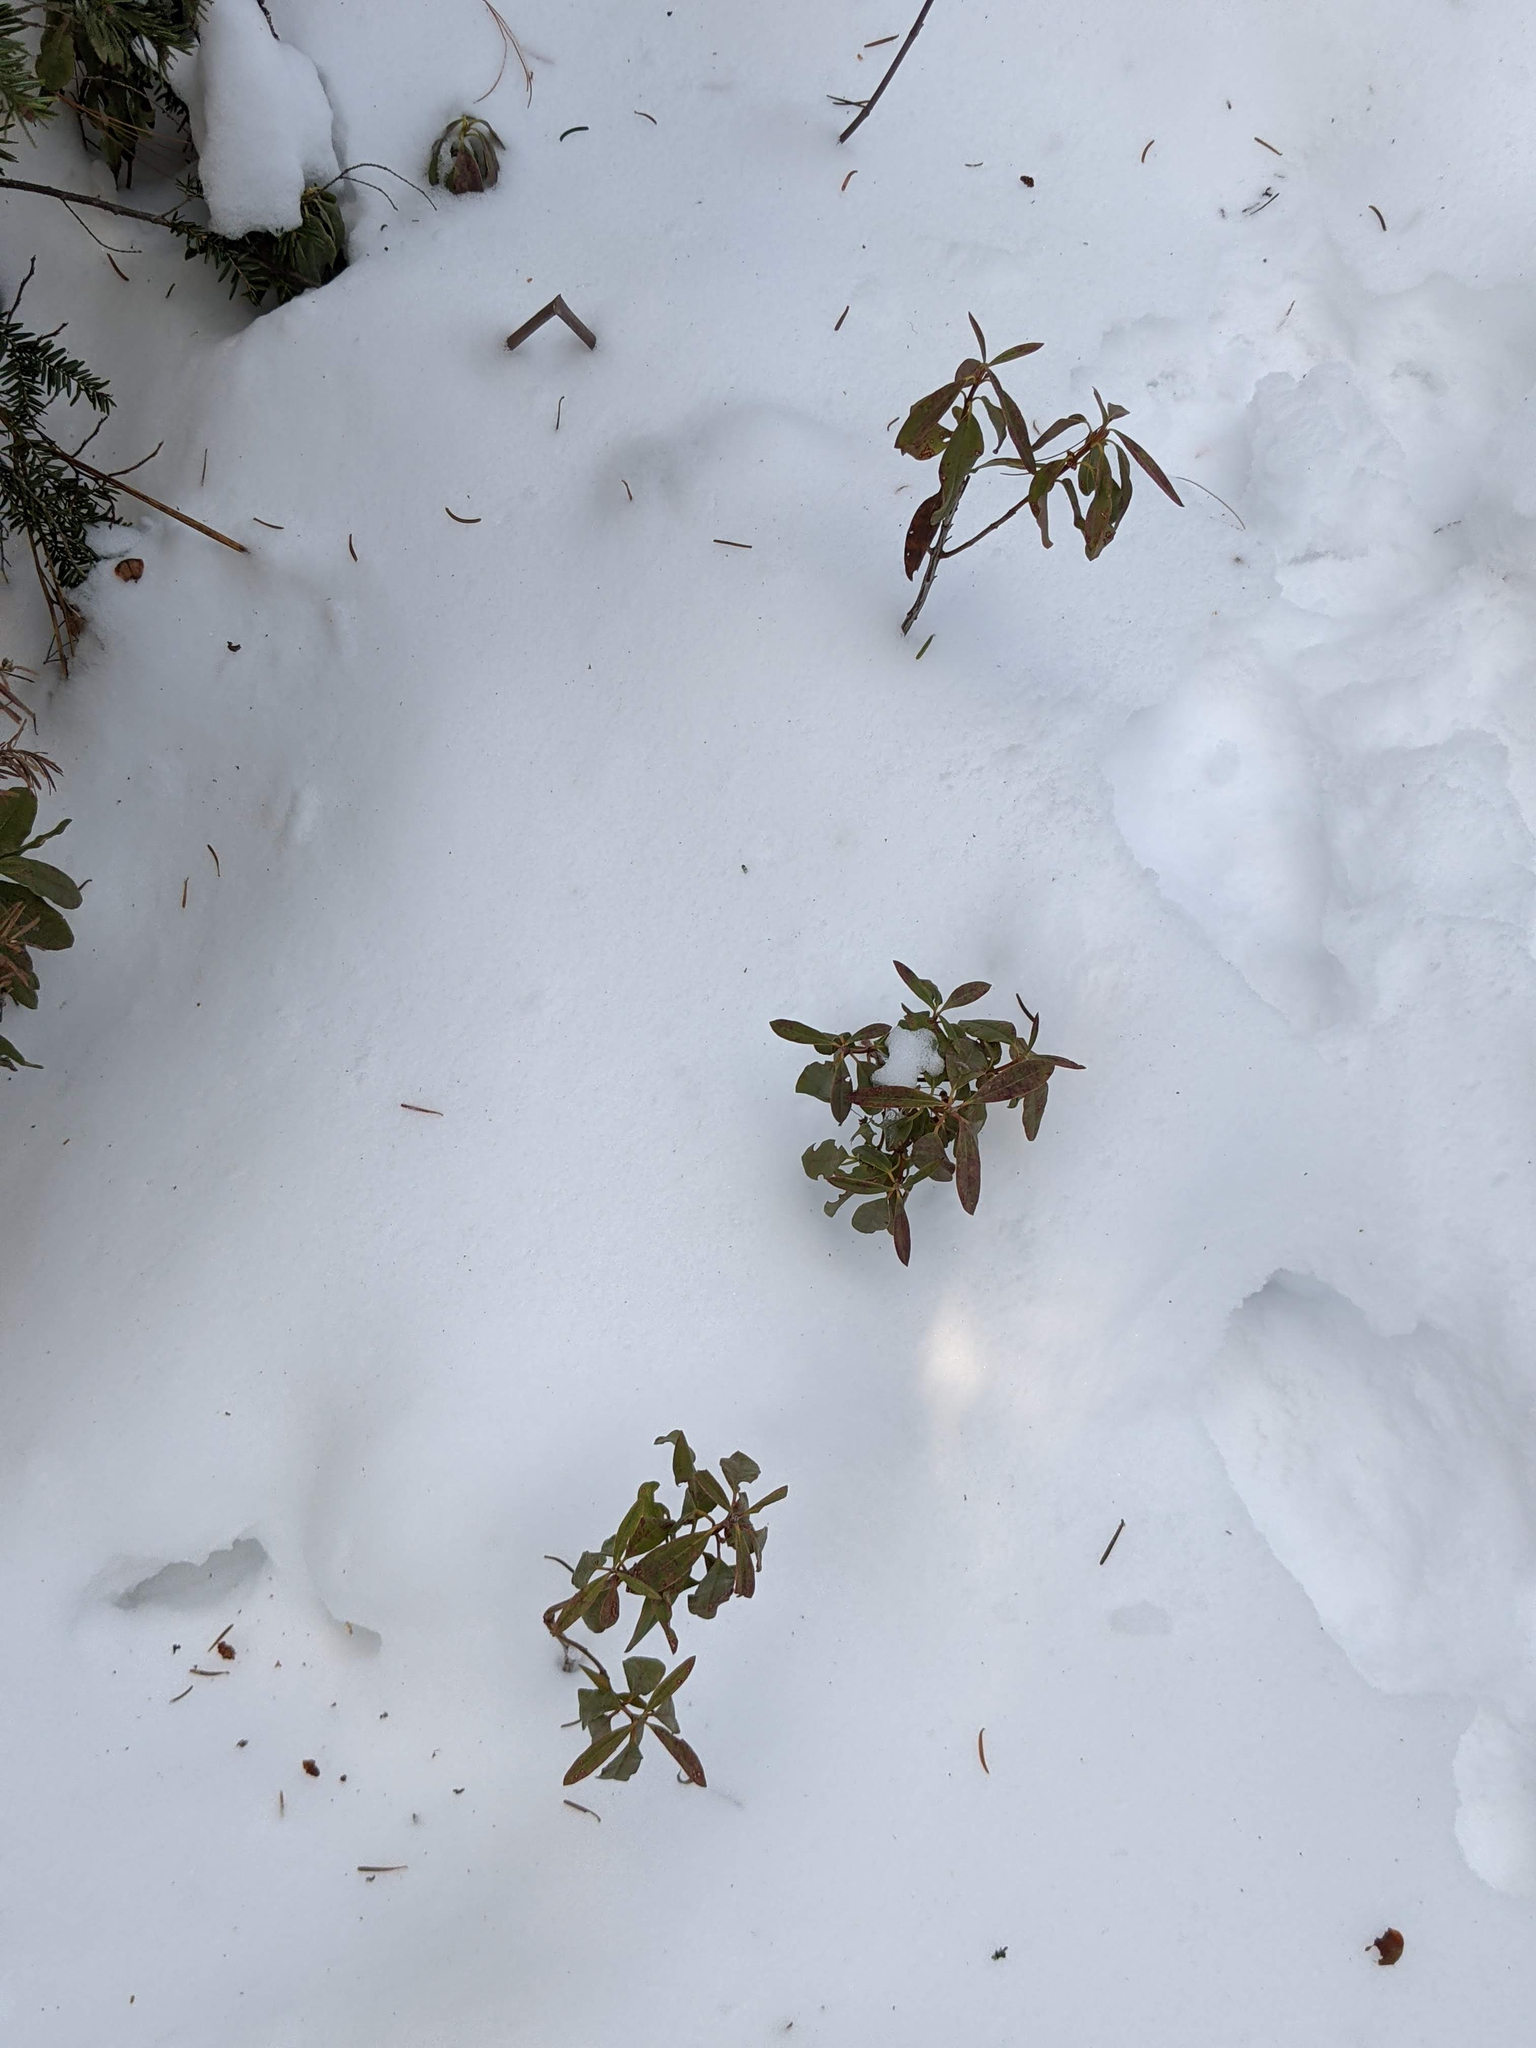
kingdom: Plantae
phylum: Tracheophyta
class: Magnoliopsida
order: Ericales
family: Ericaceae
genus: Kalmia
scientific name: Kalmia angustifolia
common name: Sheep-laurel
